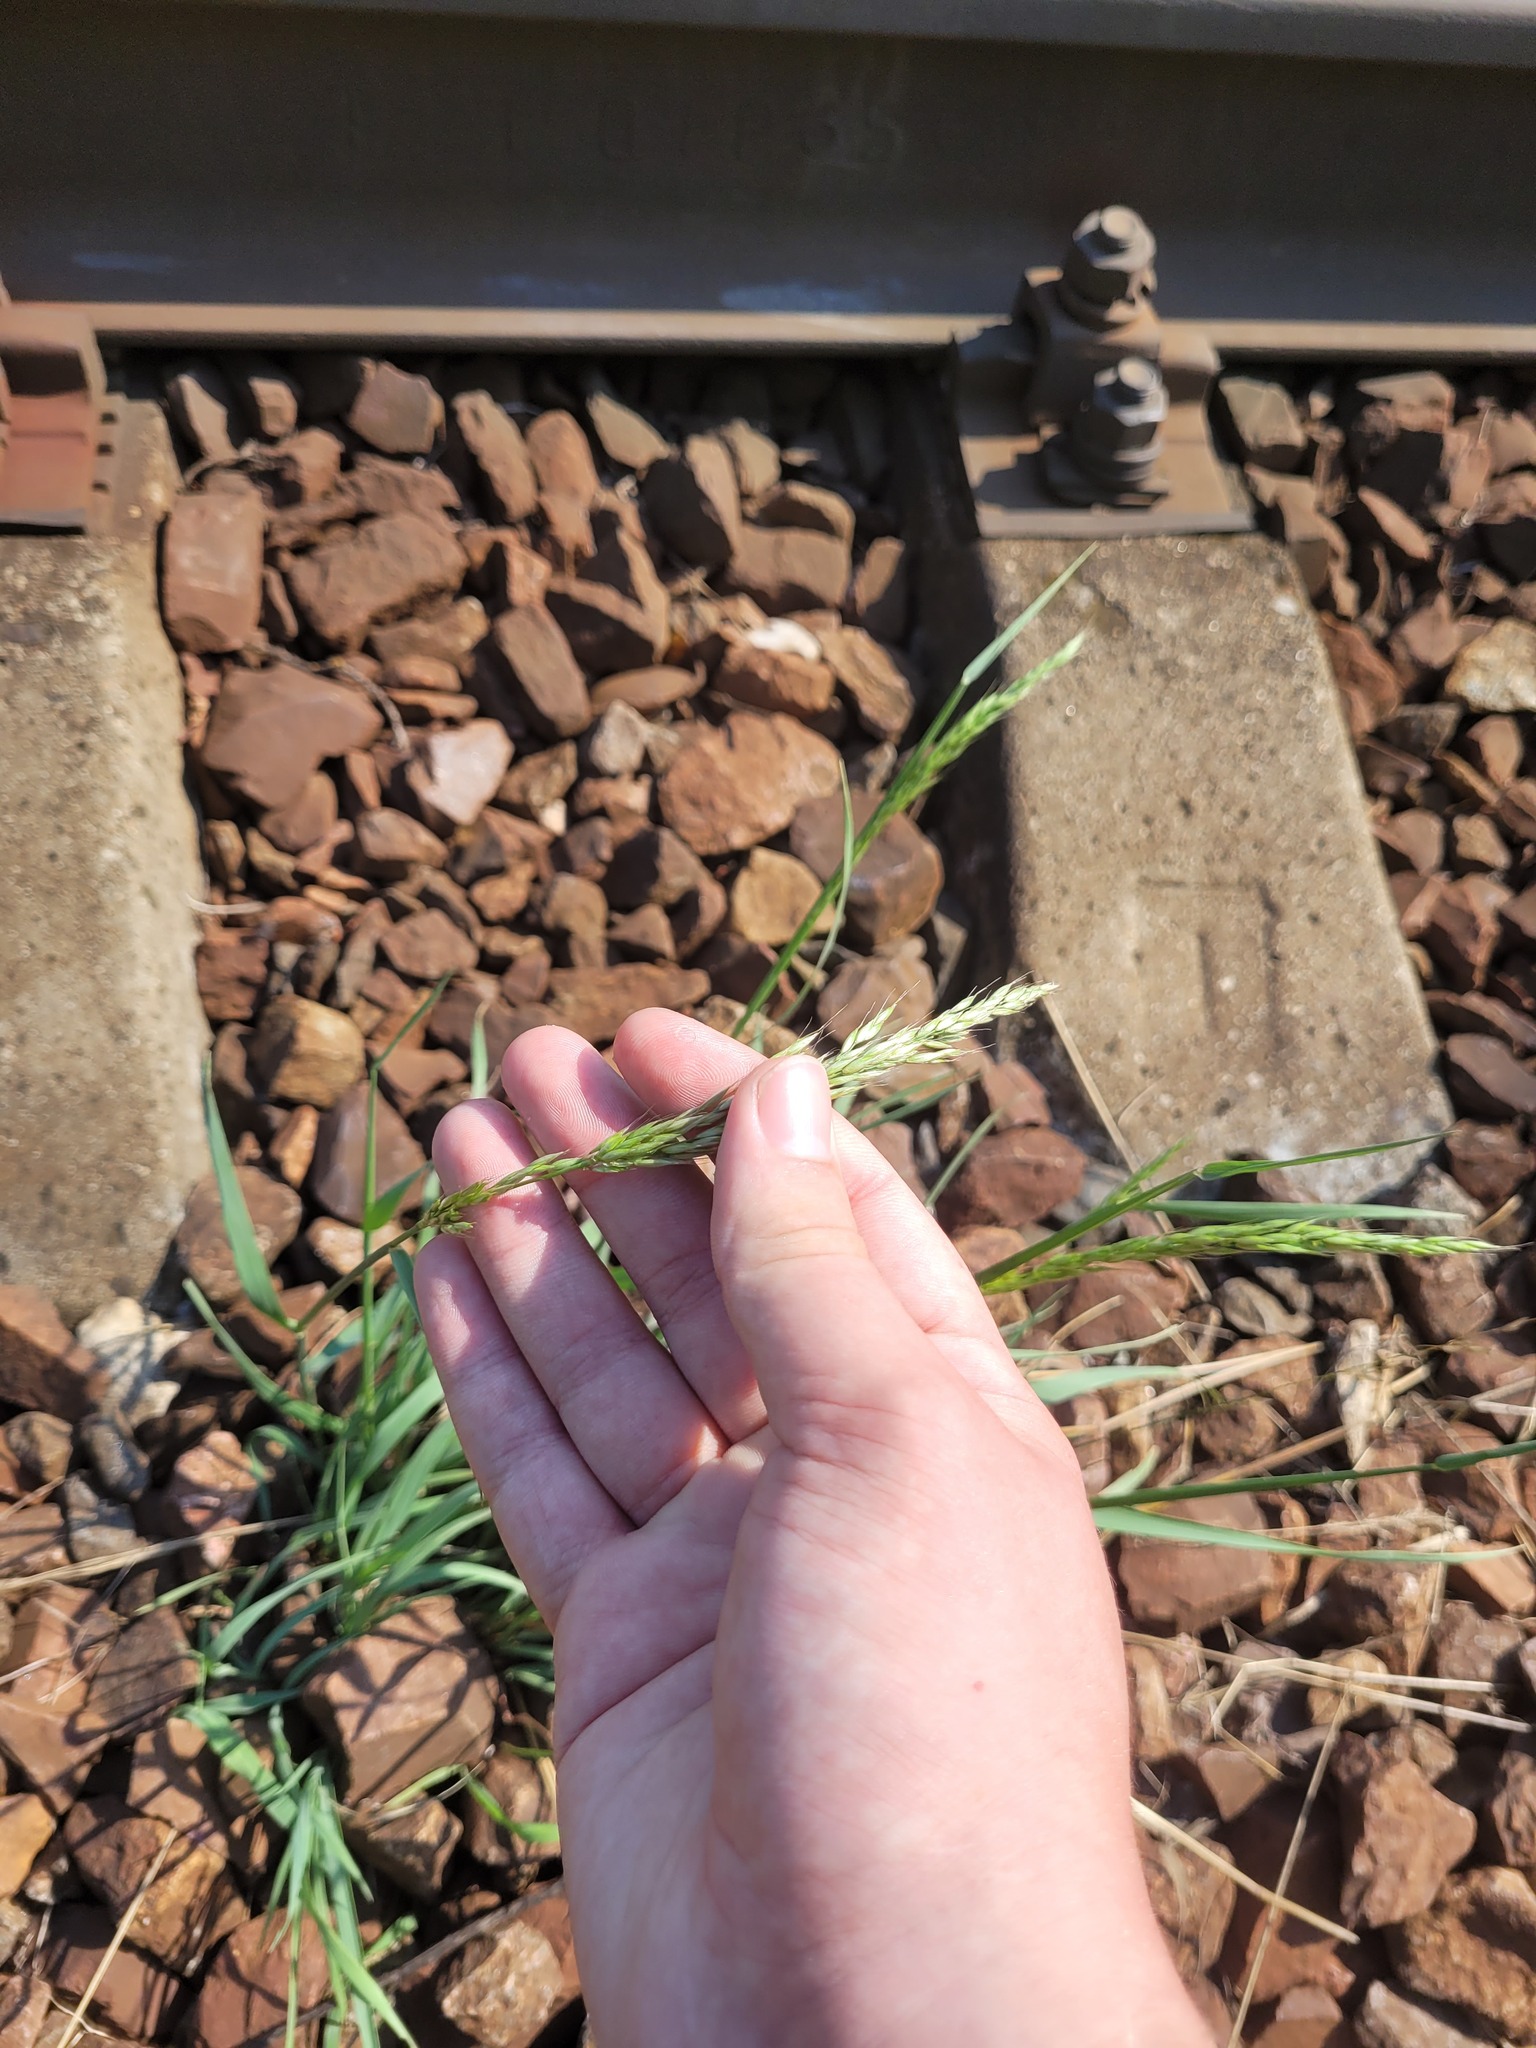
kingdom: Plantae
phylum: Tracheophyta
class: Liliopsida
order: Poales
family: Poaceae
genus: Arrhenatherum
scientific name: Arrhenatherum elatius
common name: Tall oatgrass
